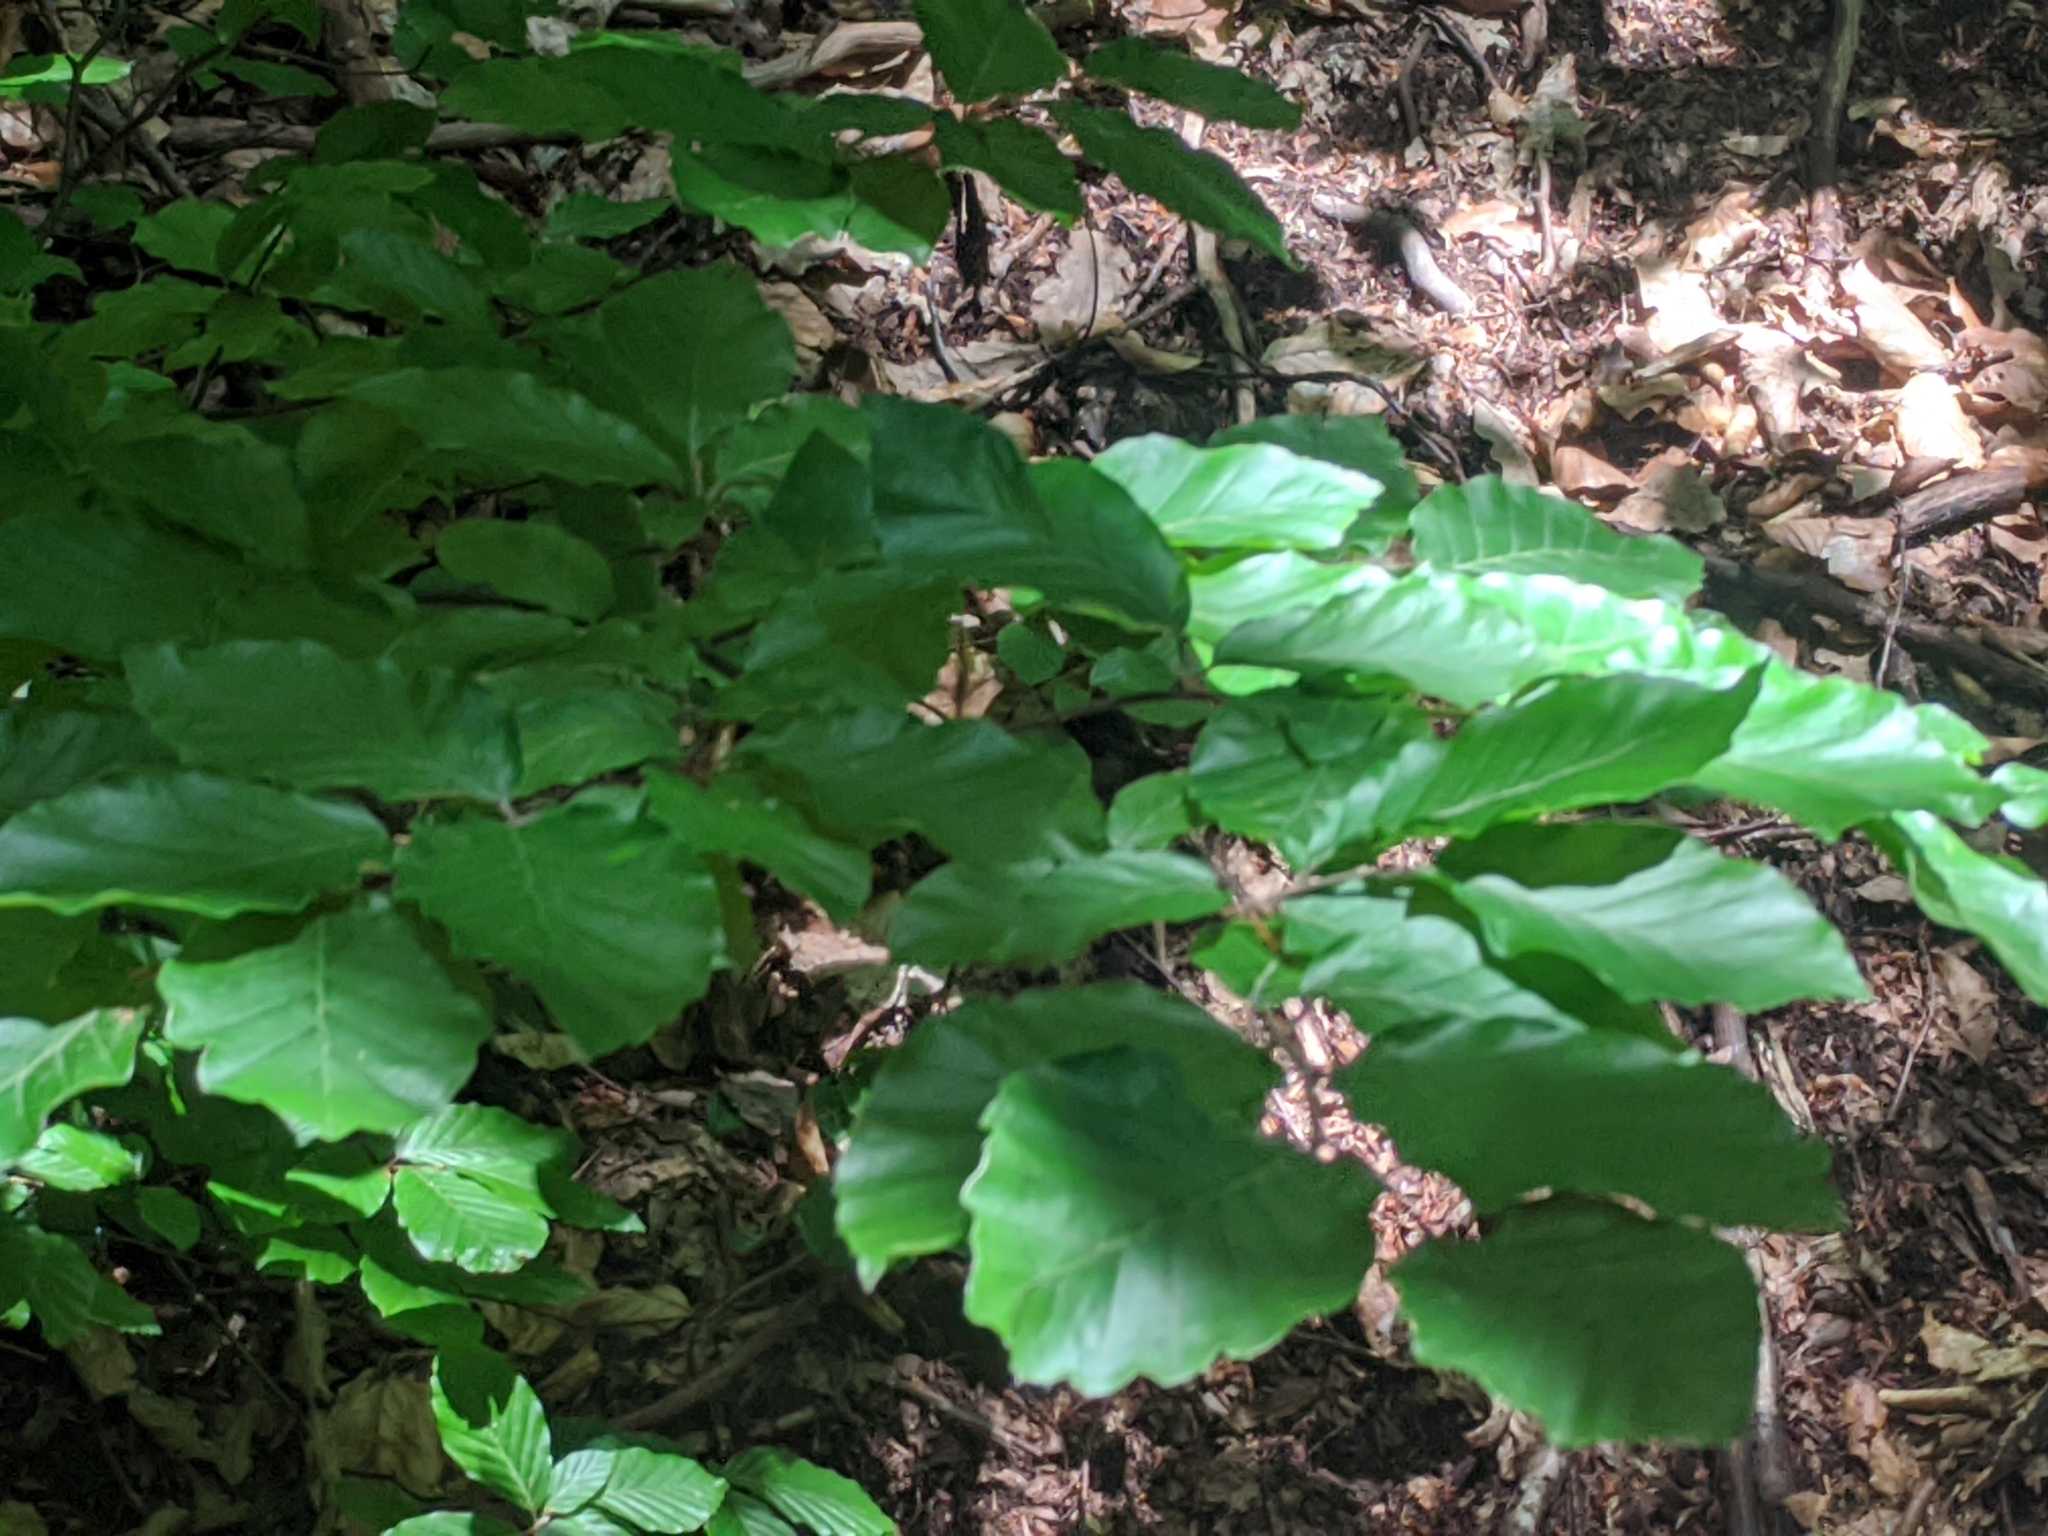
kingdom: Plantae
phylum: Tracheophyta
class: Magnoliopsida
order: Fagales
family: Fagaceae
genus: Fagus
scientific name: Fagus sylvatica
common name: Beech
